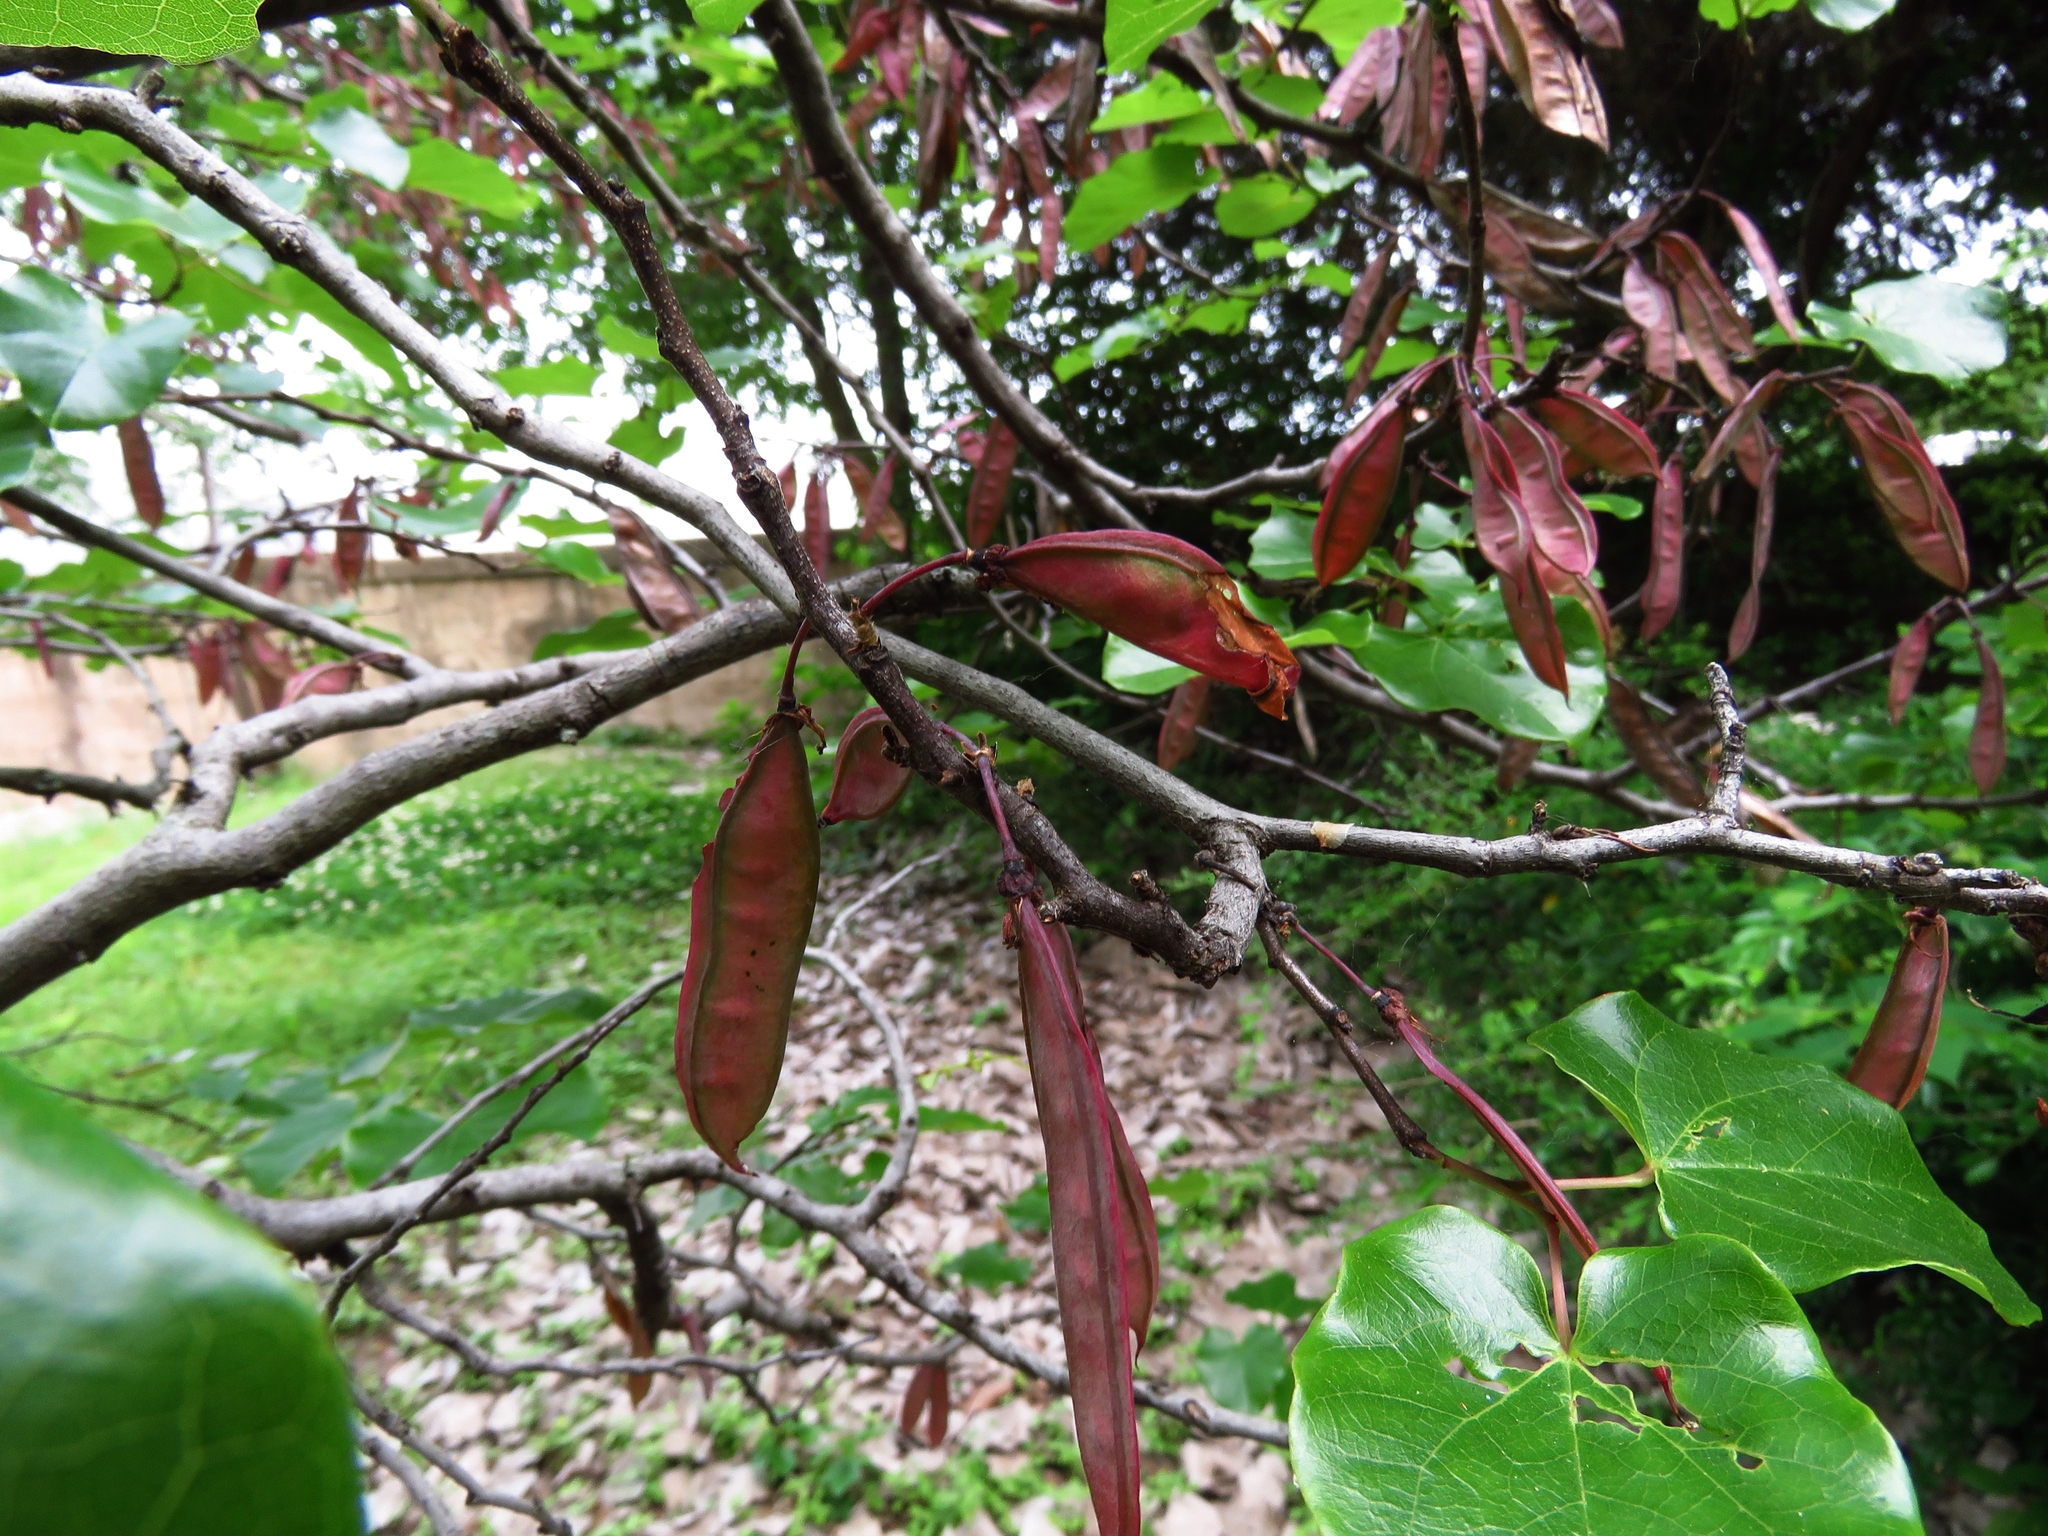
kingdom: Plantae
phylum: Tracheophyta
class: Magnoliopsida
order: Fabales
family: Fabaceae
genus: Cercis
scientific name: Cercis canadensis
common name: Eastern redbud
